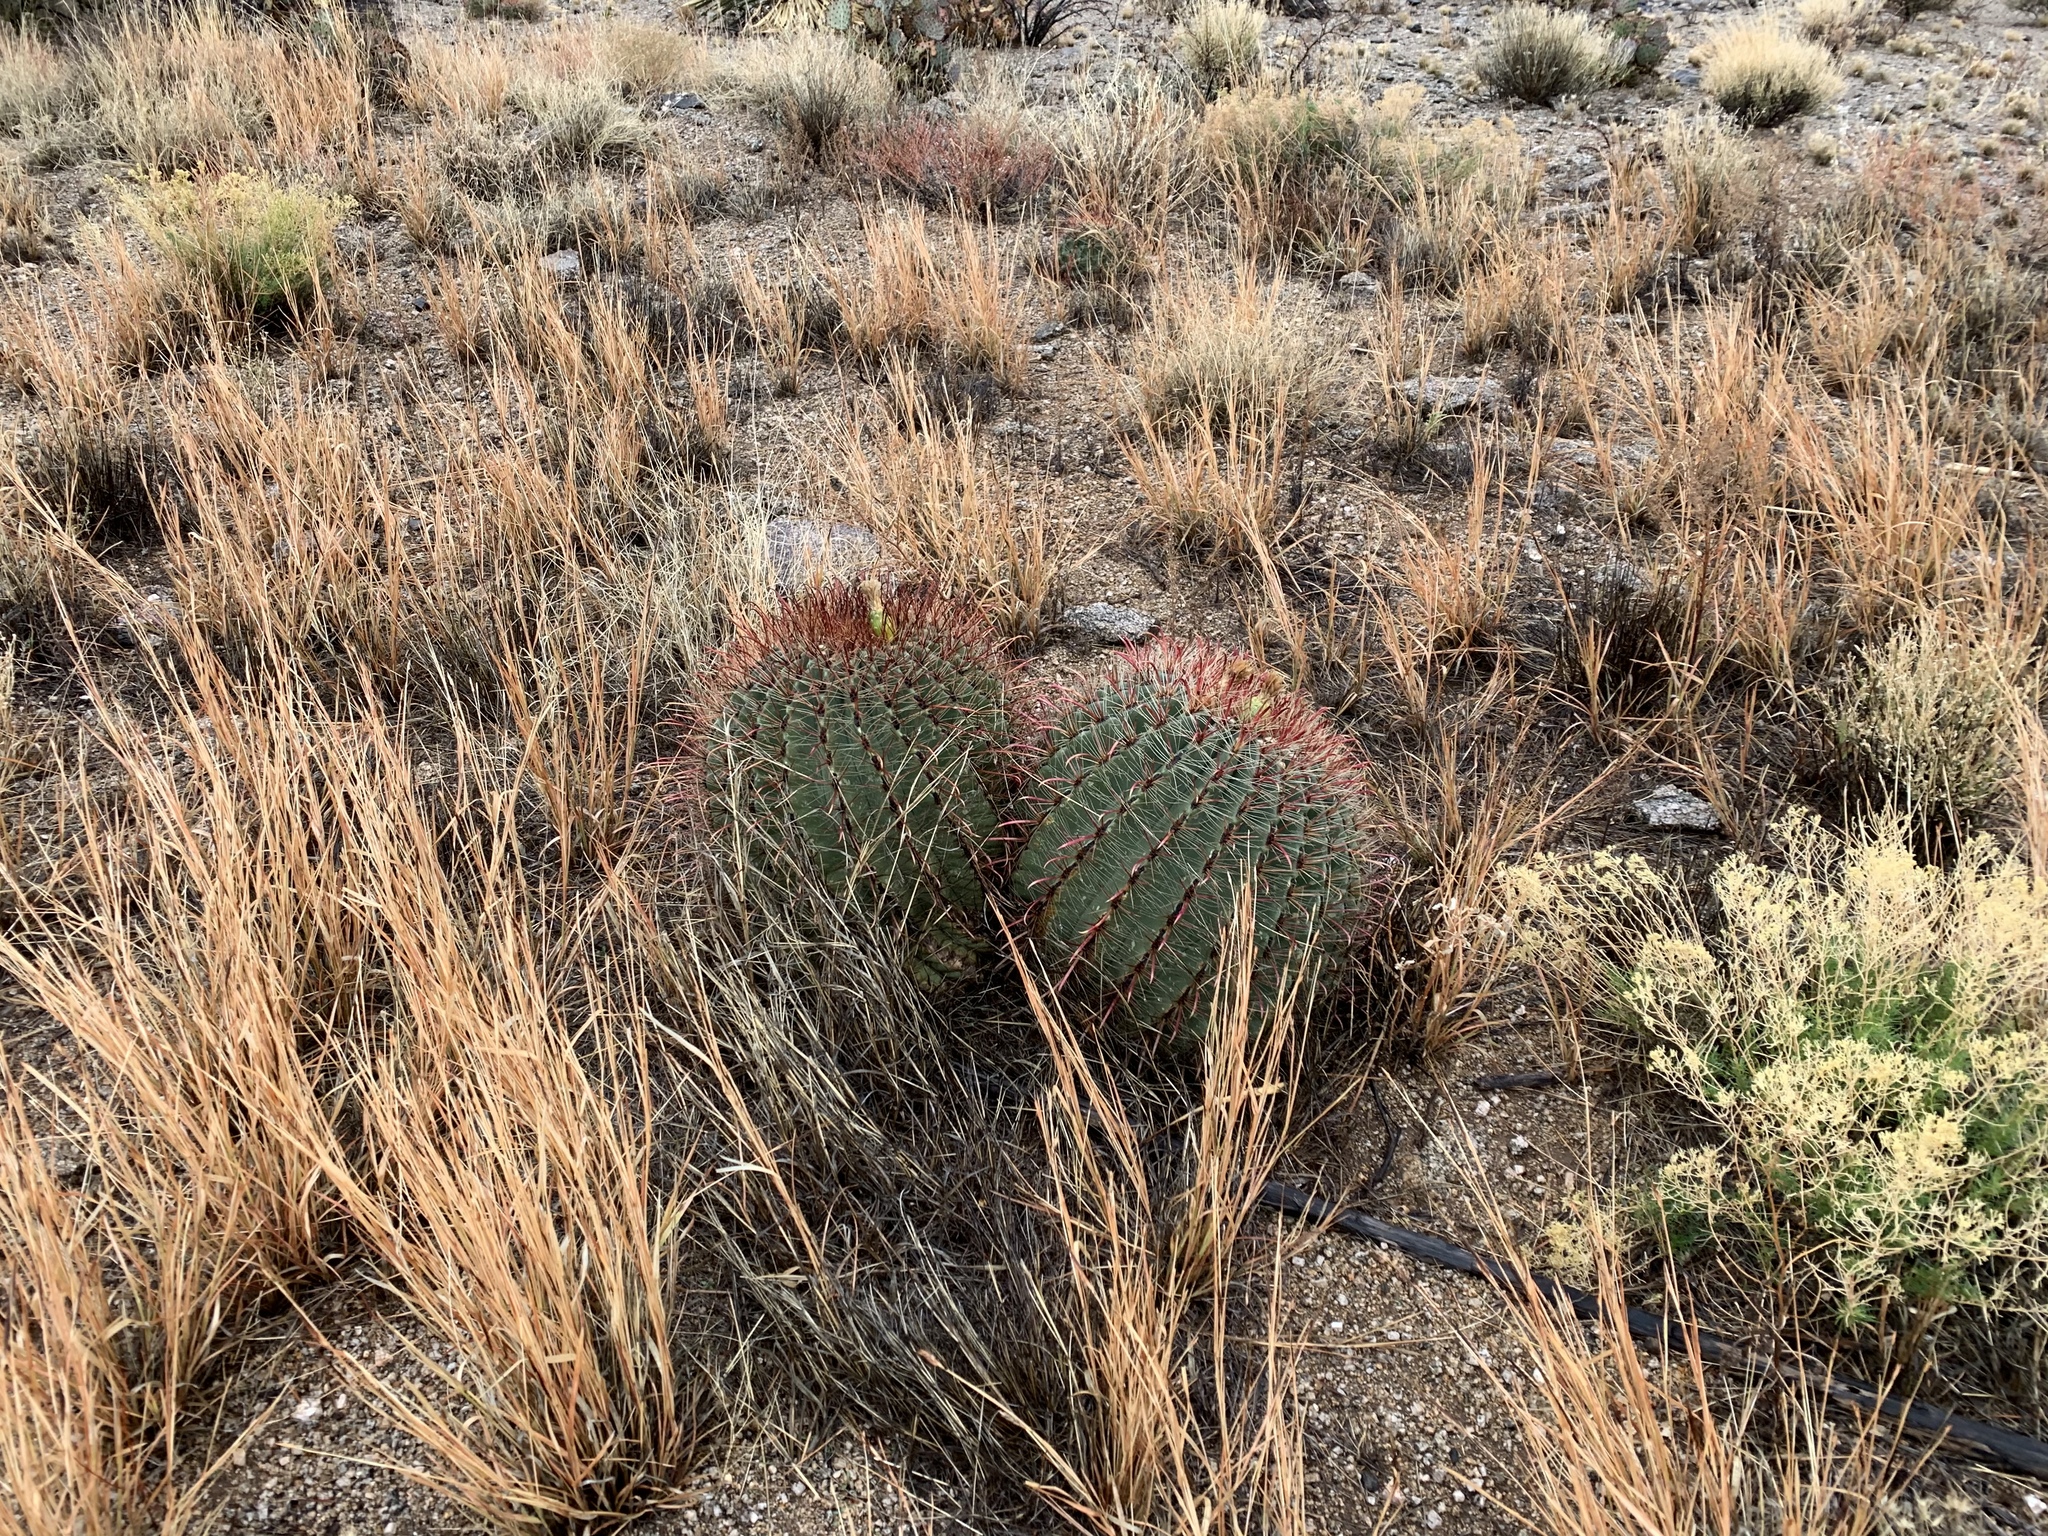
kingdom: Plantae
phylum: Tracheophyta
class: Magnoliopsida
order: Caryophyllales
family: Cactaceae
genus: Ferocactus
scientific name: Ferocactus wislizeni
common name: Candy barrel cactus
